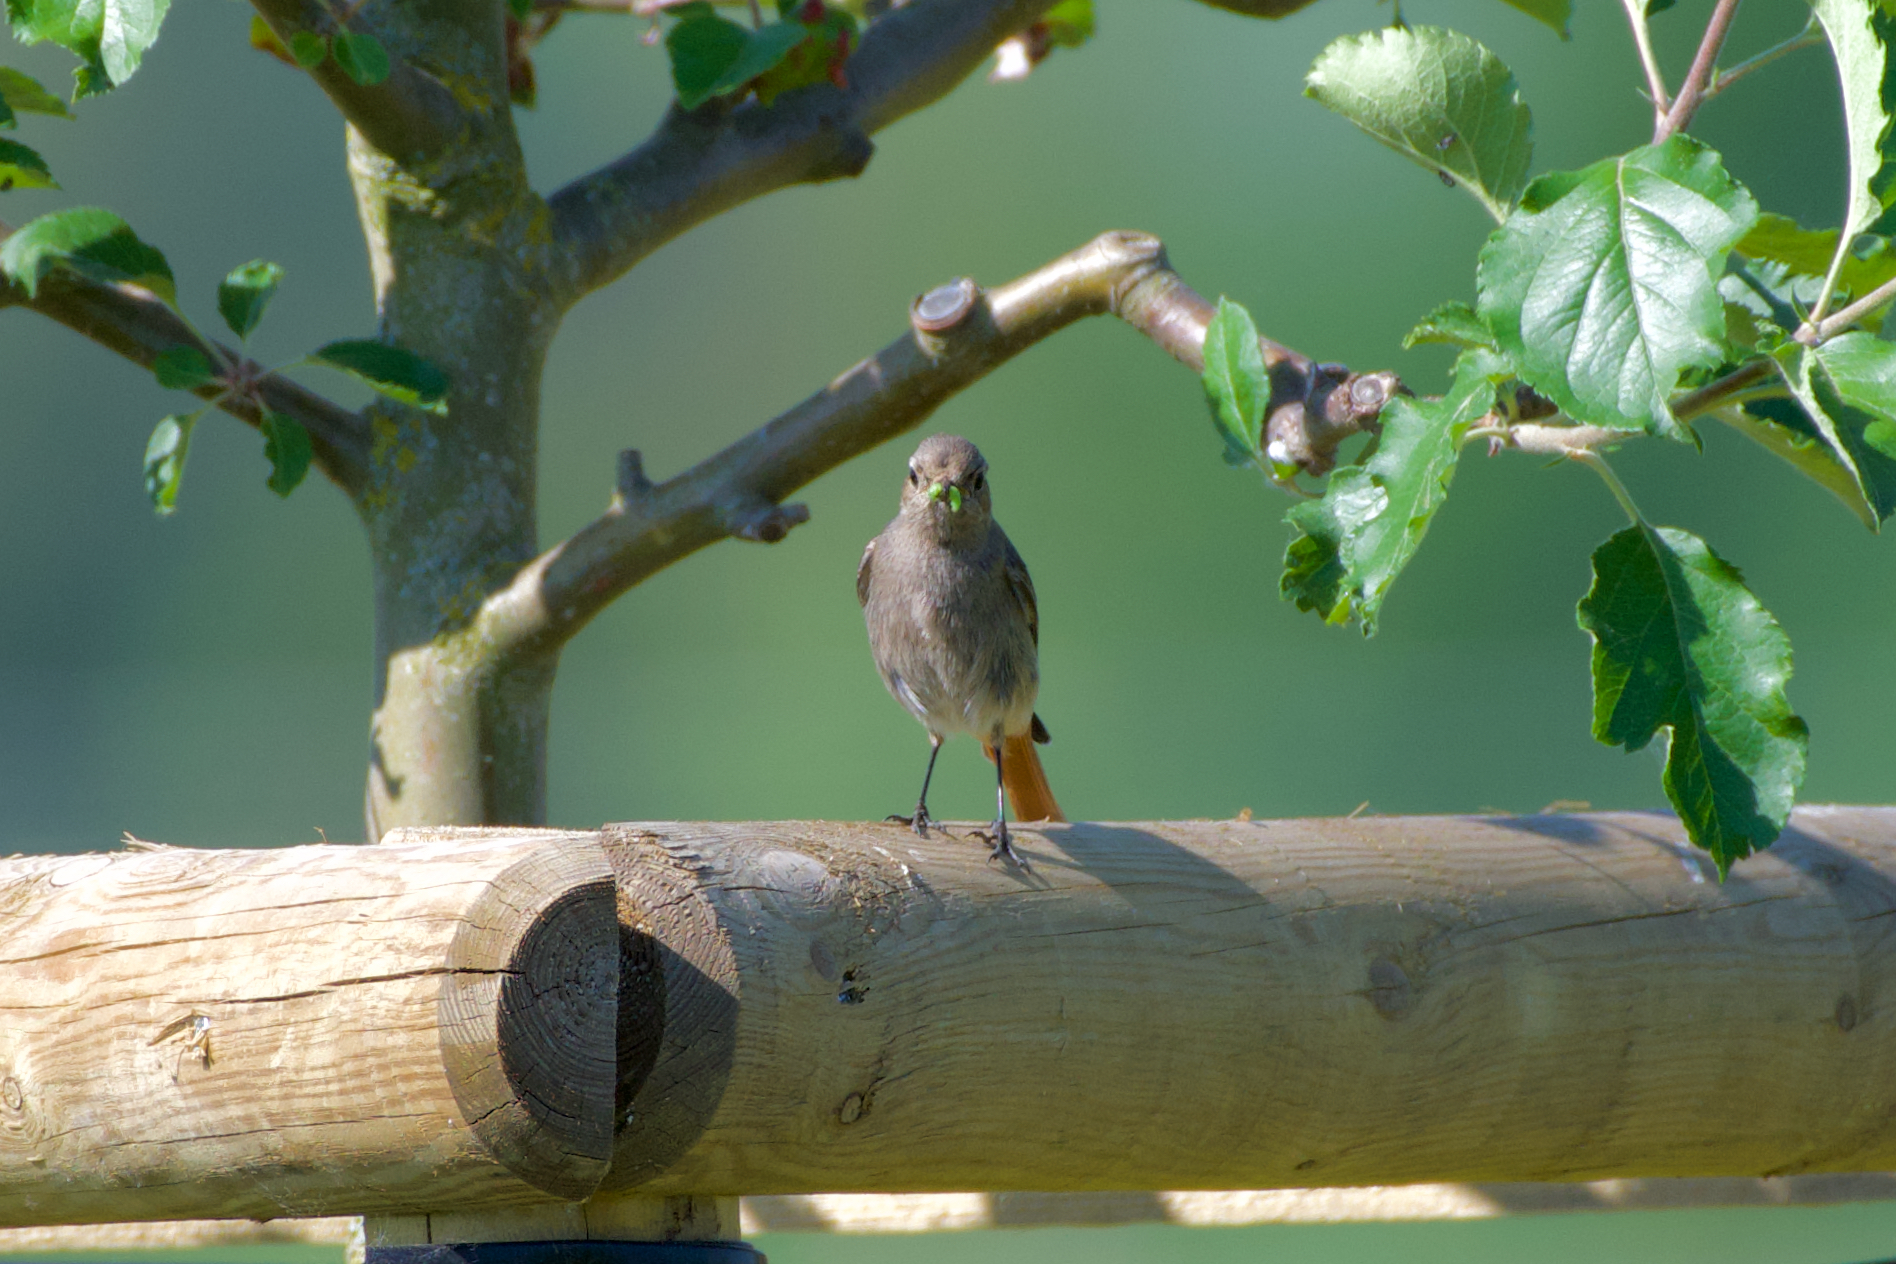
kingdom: Animalia
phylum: Chordata
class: Aves
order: Passeriformes
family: Muscicapidae
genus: Phoenicurus
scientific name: Phoenicurus ochruros
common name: Black redstart
